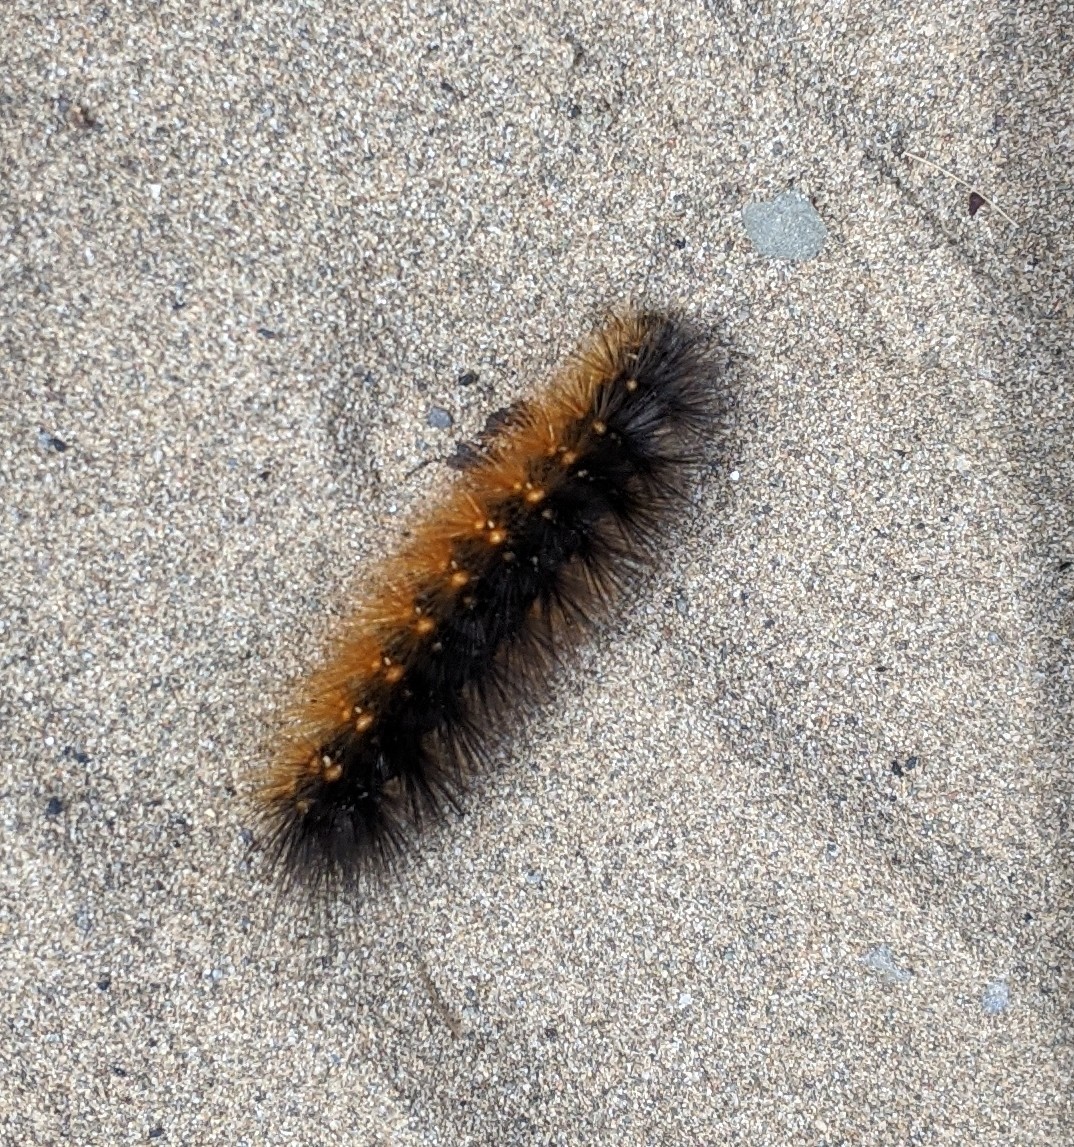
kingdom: Animalia
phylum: Arthropoda
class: Insecta
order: Lepidoptera
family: Erebidae
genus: Estigmene
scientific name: Estigmene acrea
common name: Salt marsh moth
